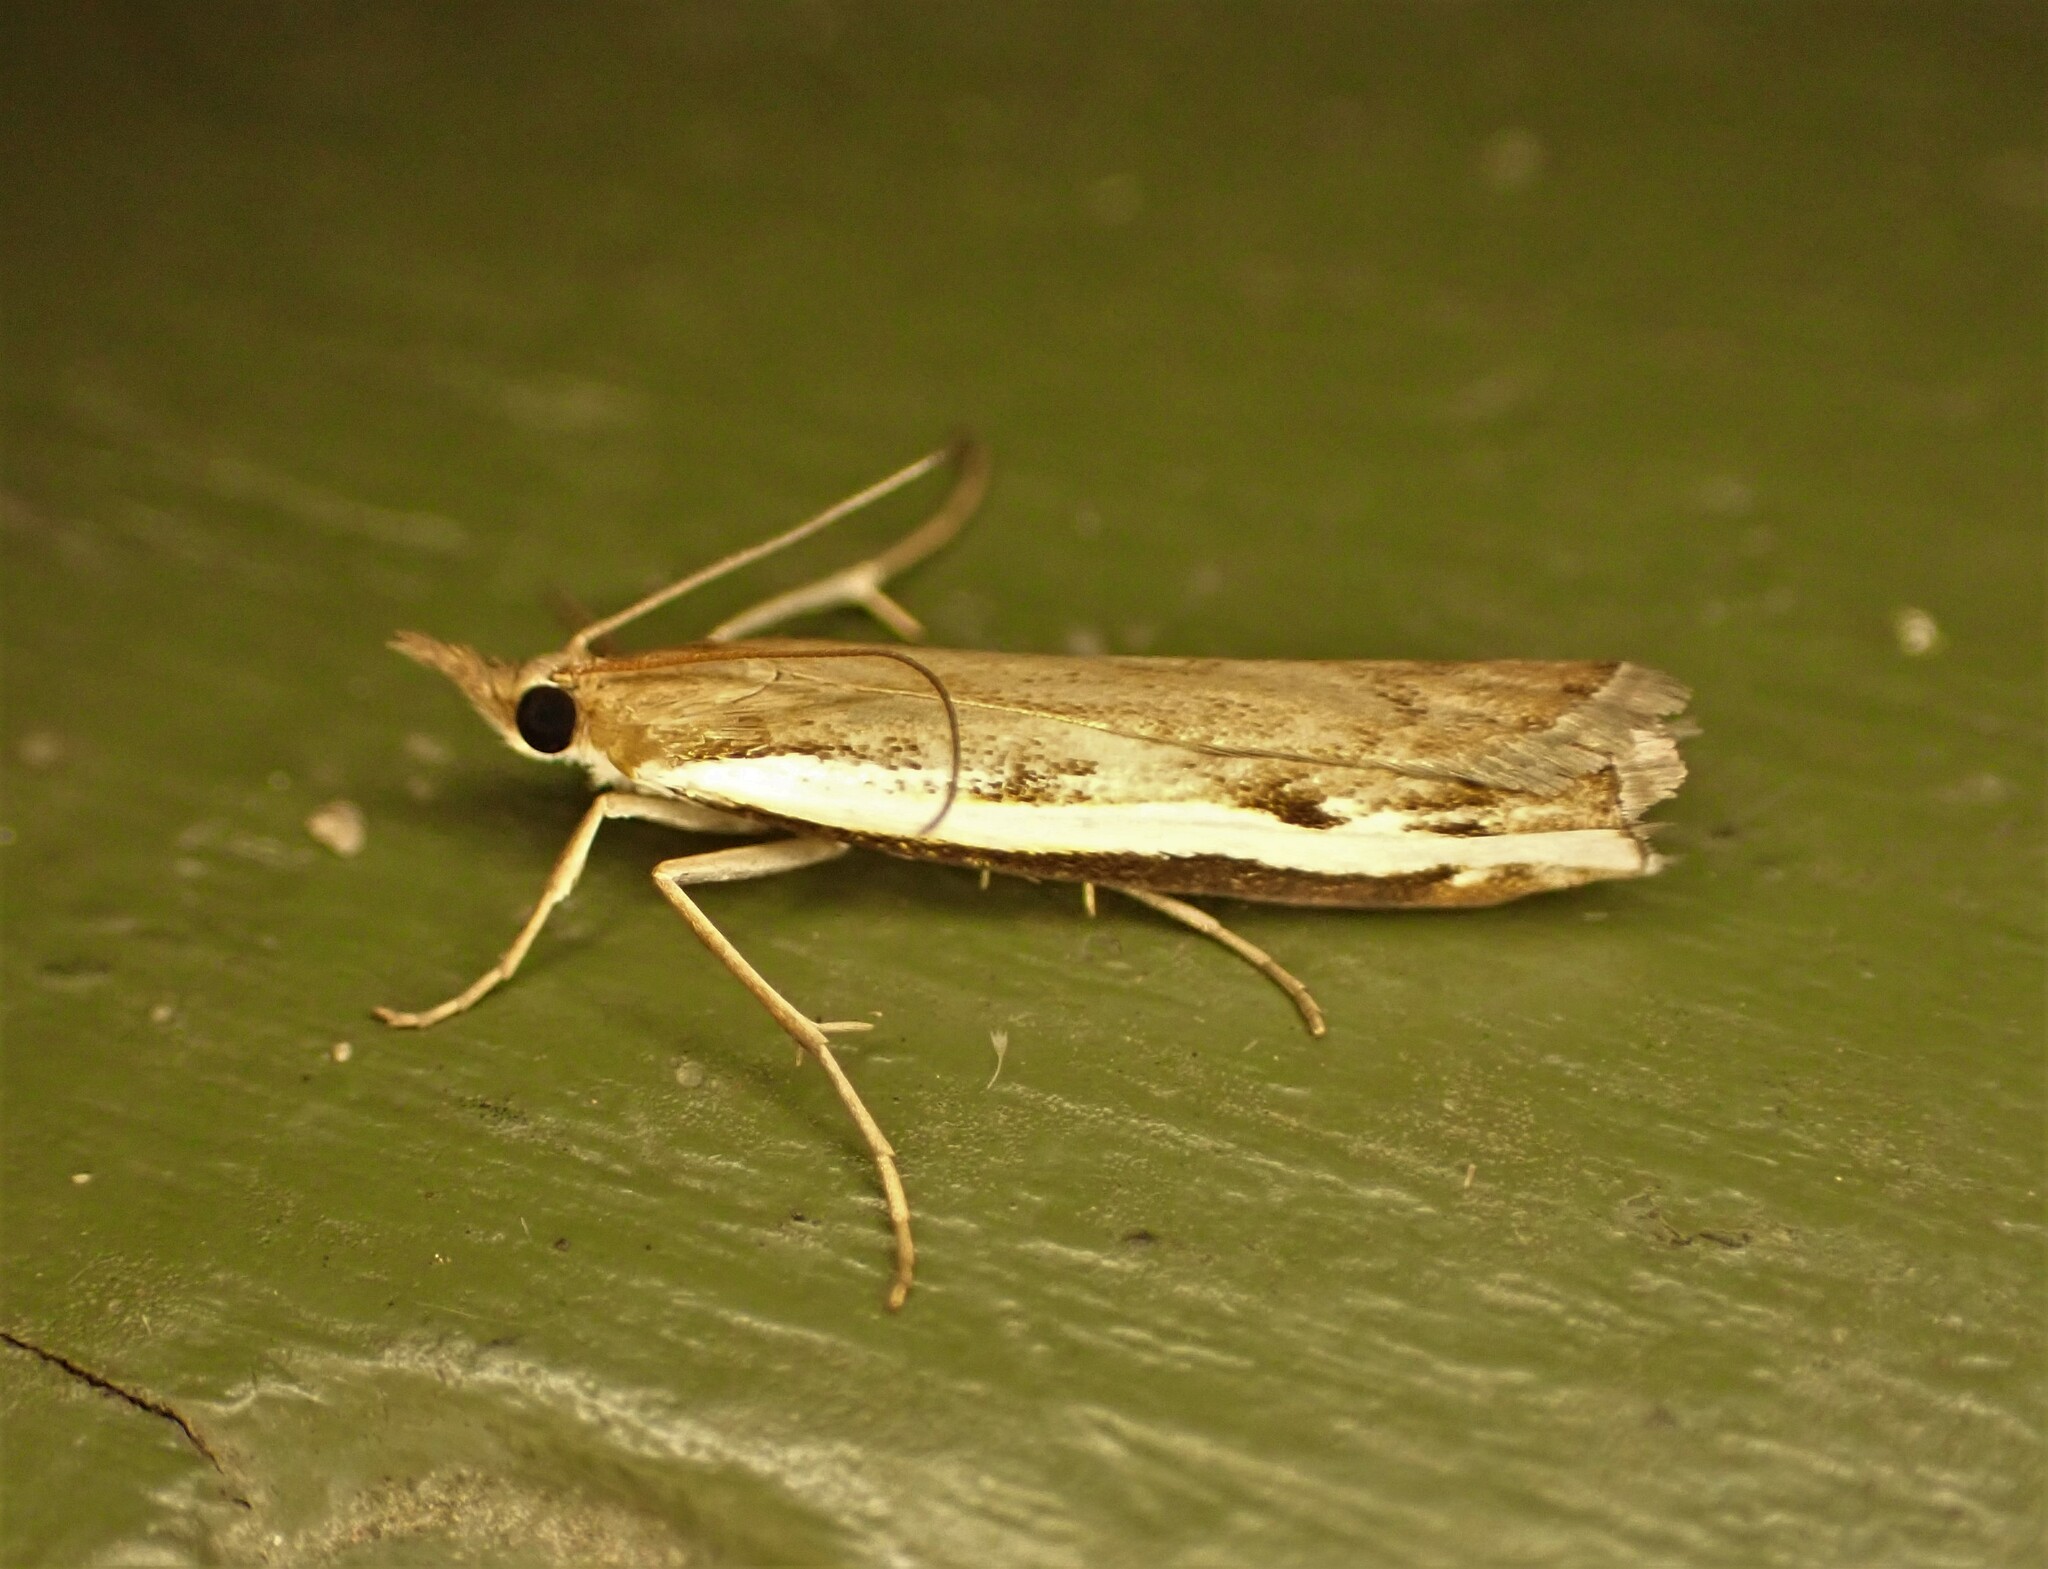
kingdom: Animalia
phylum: Arthropoda
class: Insecta
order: Lepidoptera
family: Crambidae
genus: Orocrambus
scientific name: Orocrambus flexuosellus
